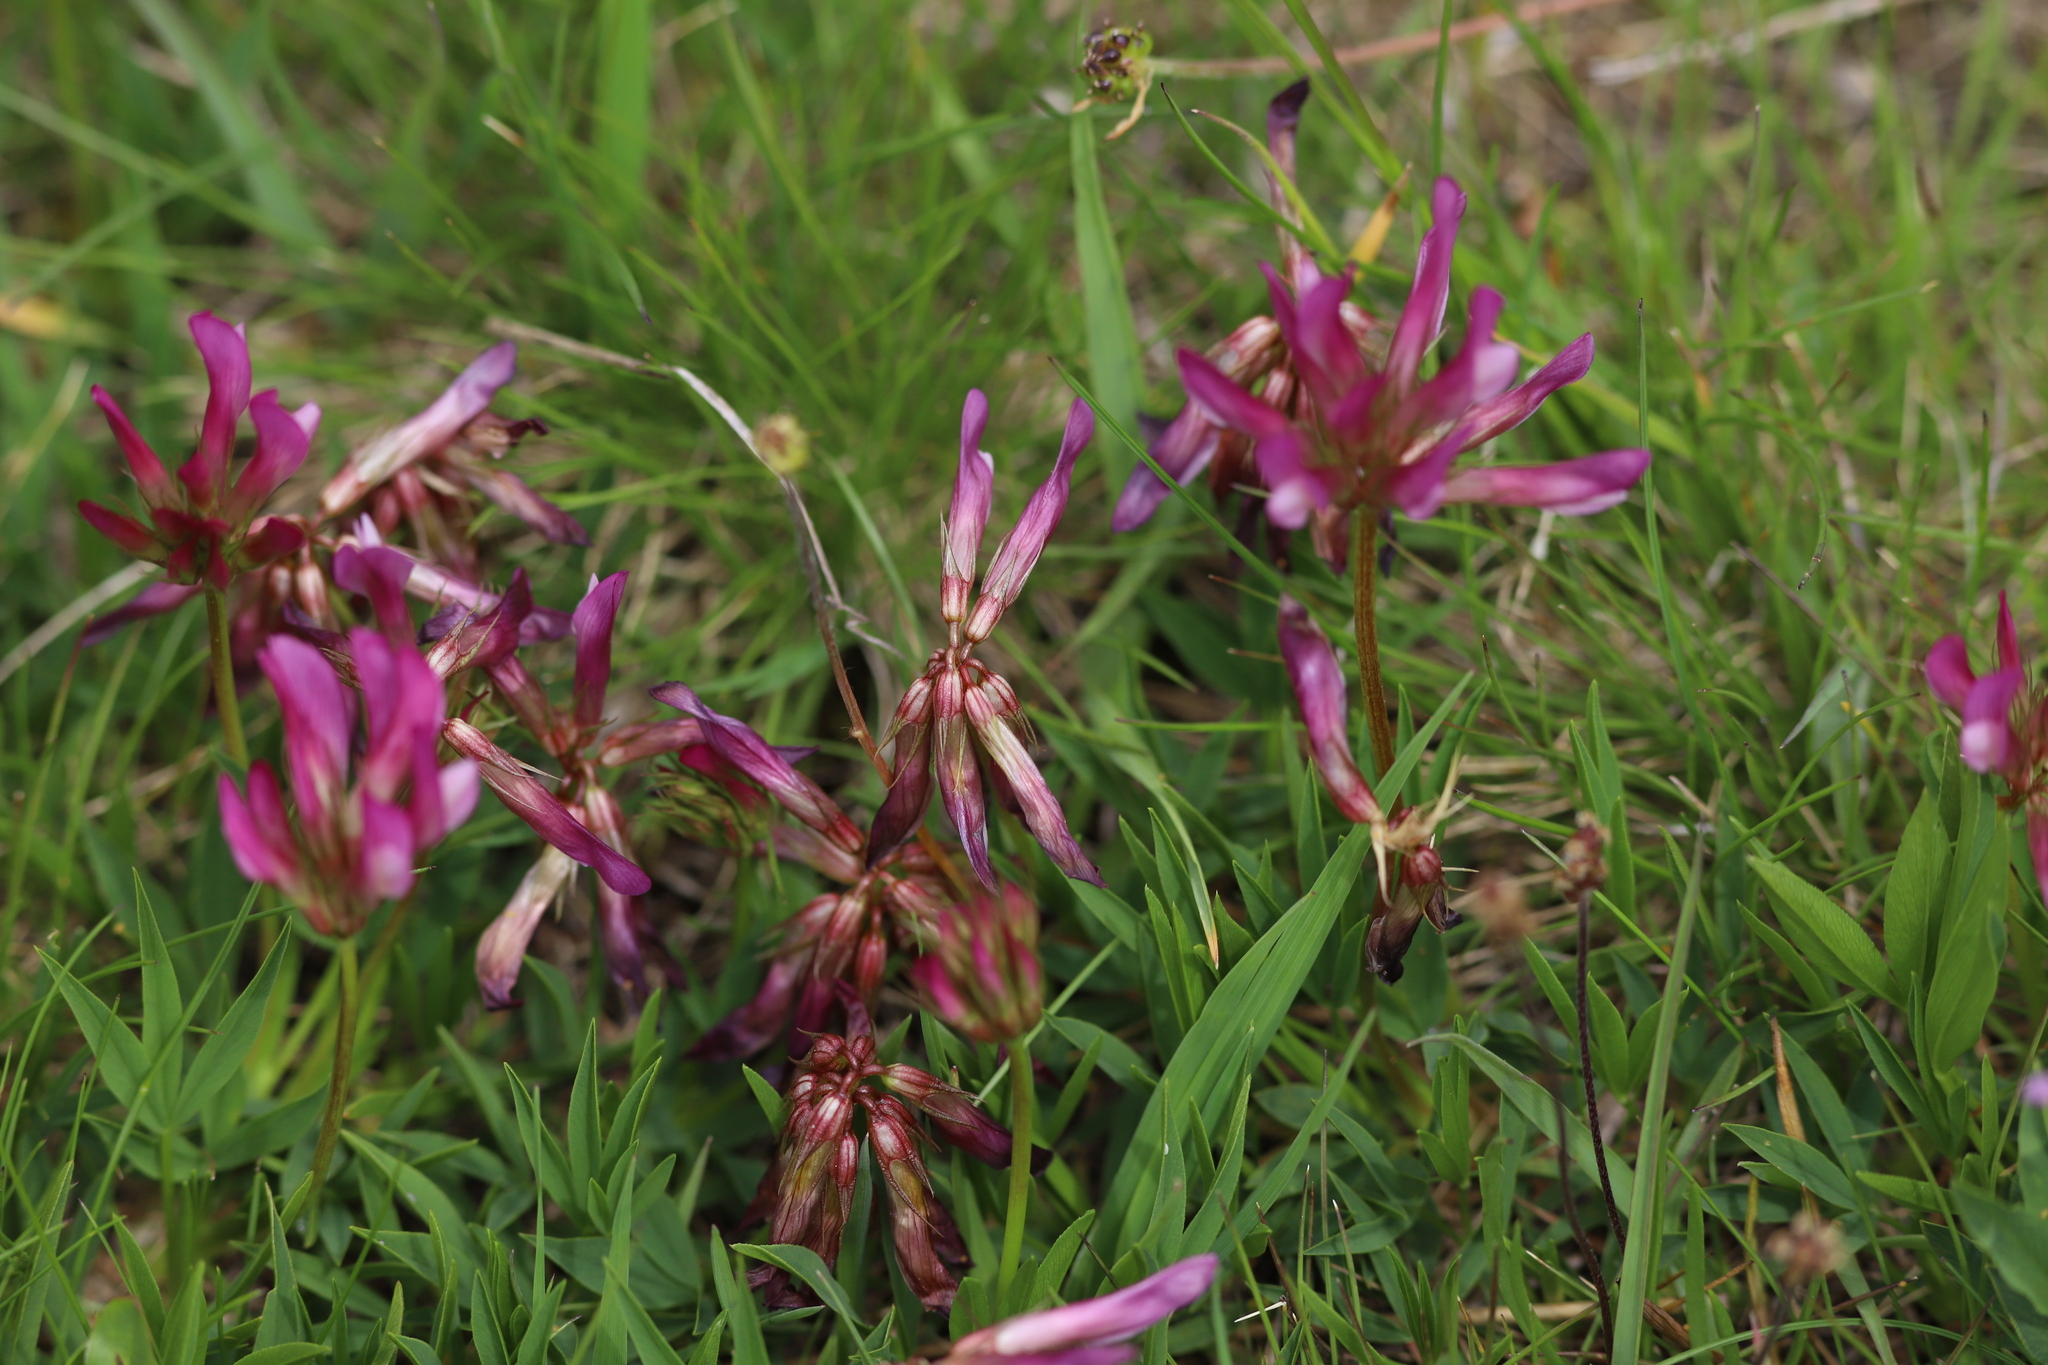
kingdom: Plantae
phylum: Tracheophyta
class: Magnoliopsida
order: Fabales
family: Fabaceae
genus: Trifolium
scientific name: Trifolium alpinum
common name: Alpine clover
